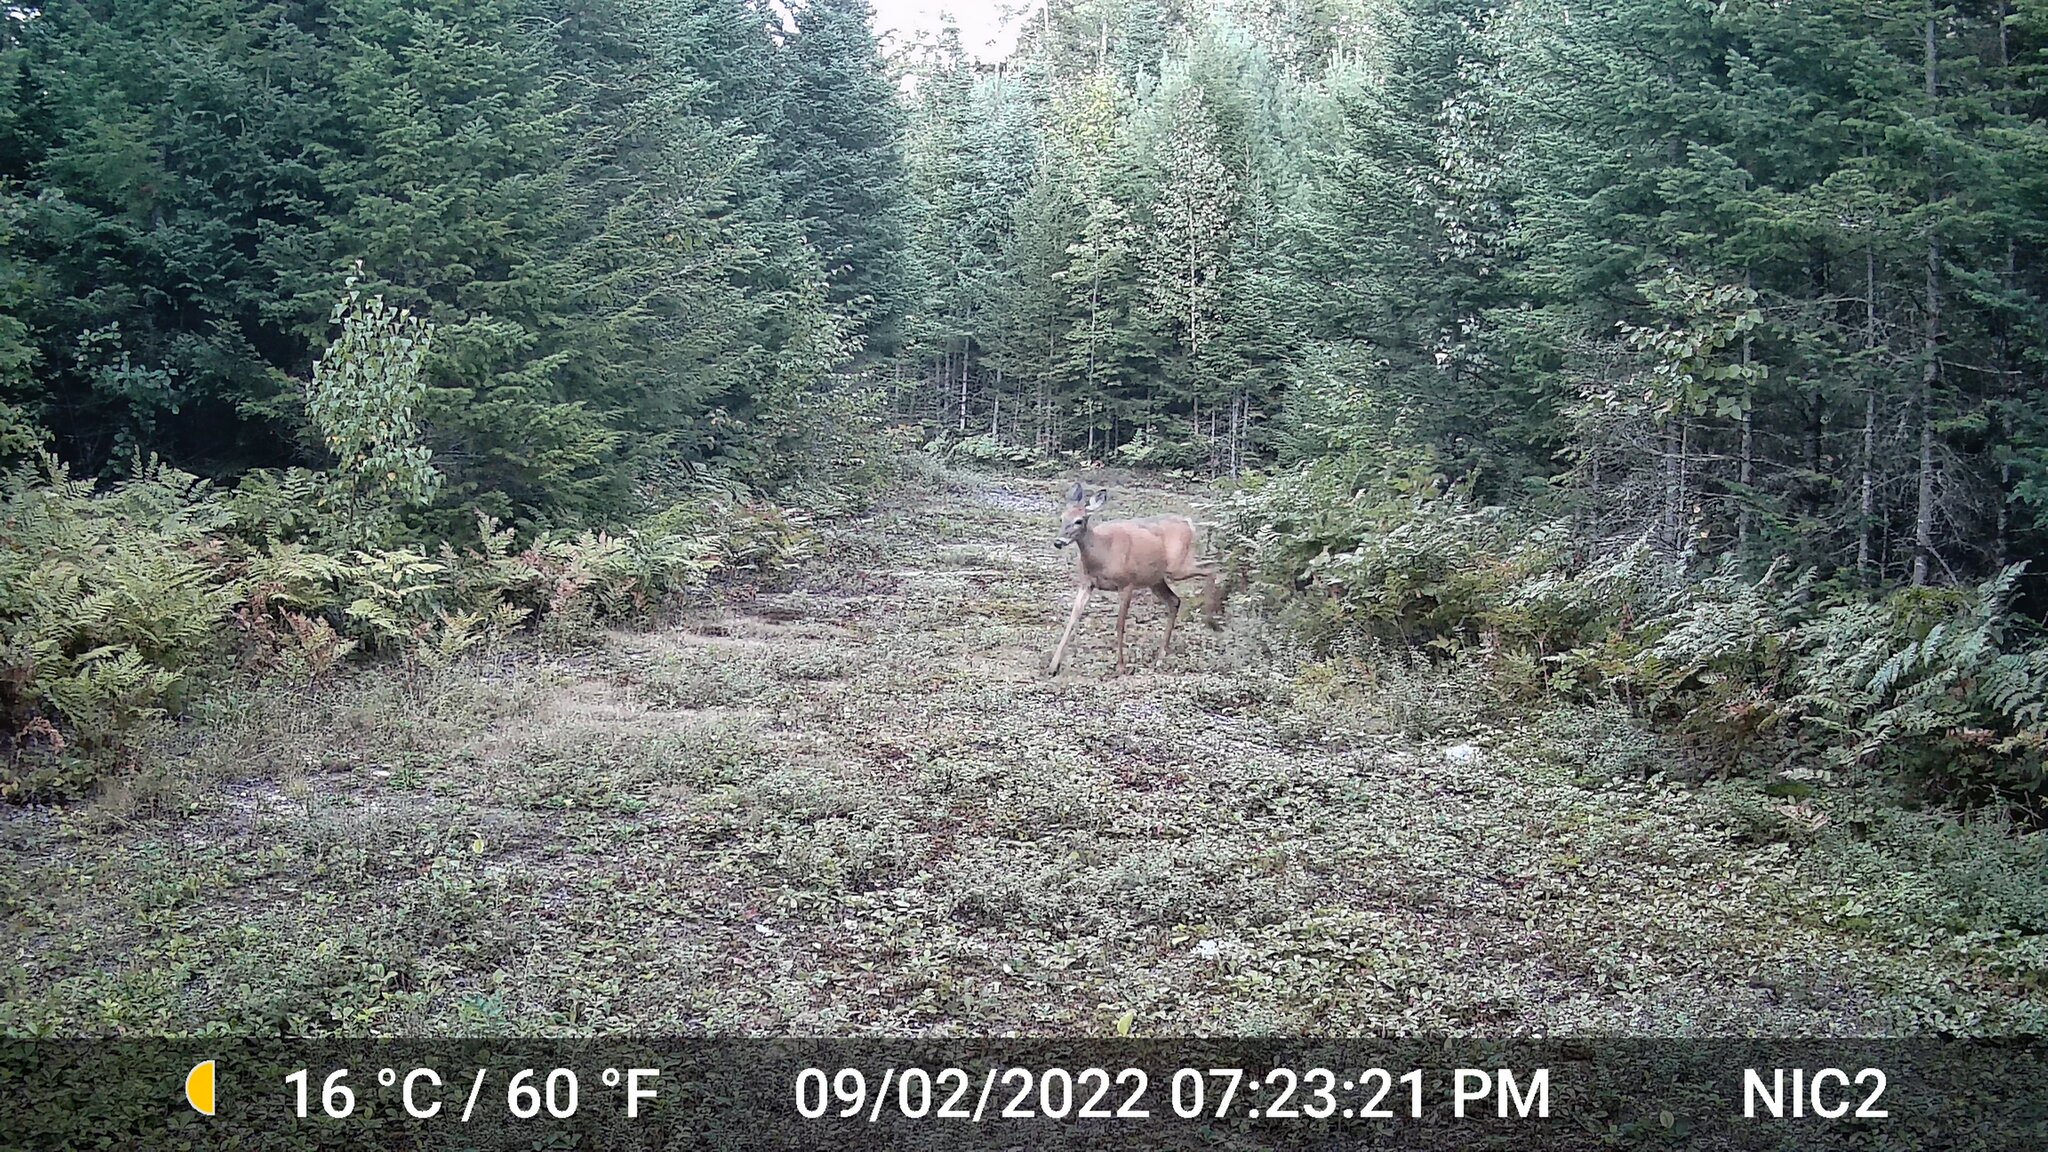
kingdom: Animalia
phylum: Chordata
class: Mammalia
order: Artiodactyla
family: Cervidae
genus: Odocoileus
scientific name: Odocoileus virginianus
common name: White-tailed deer
